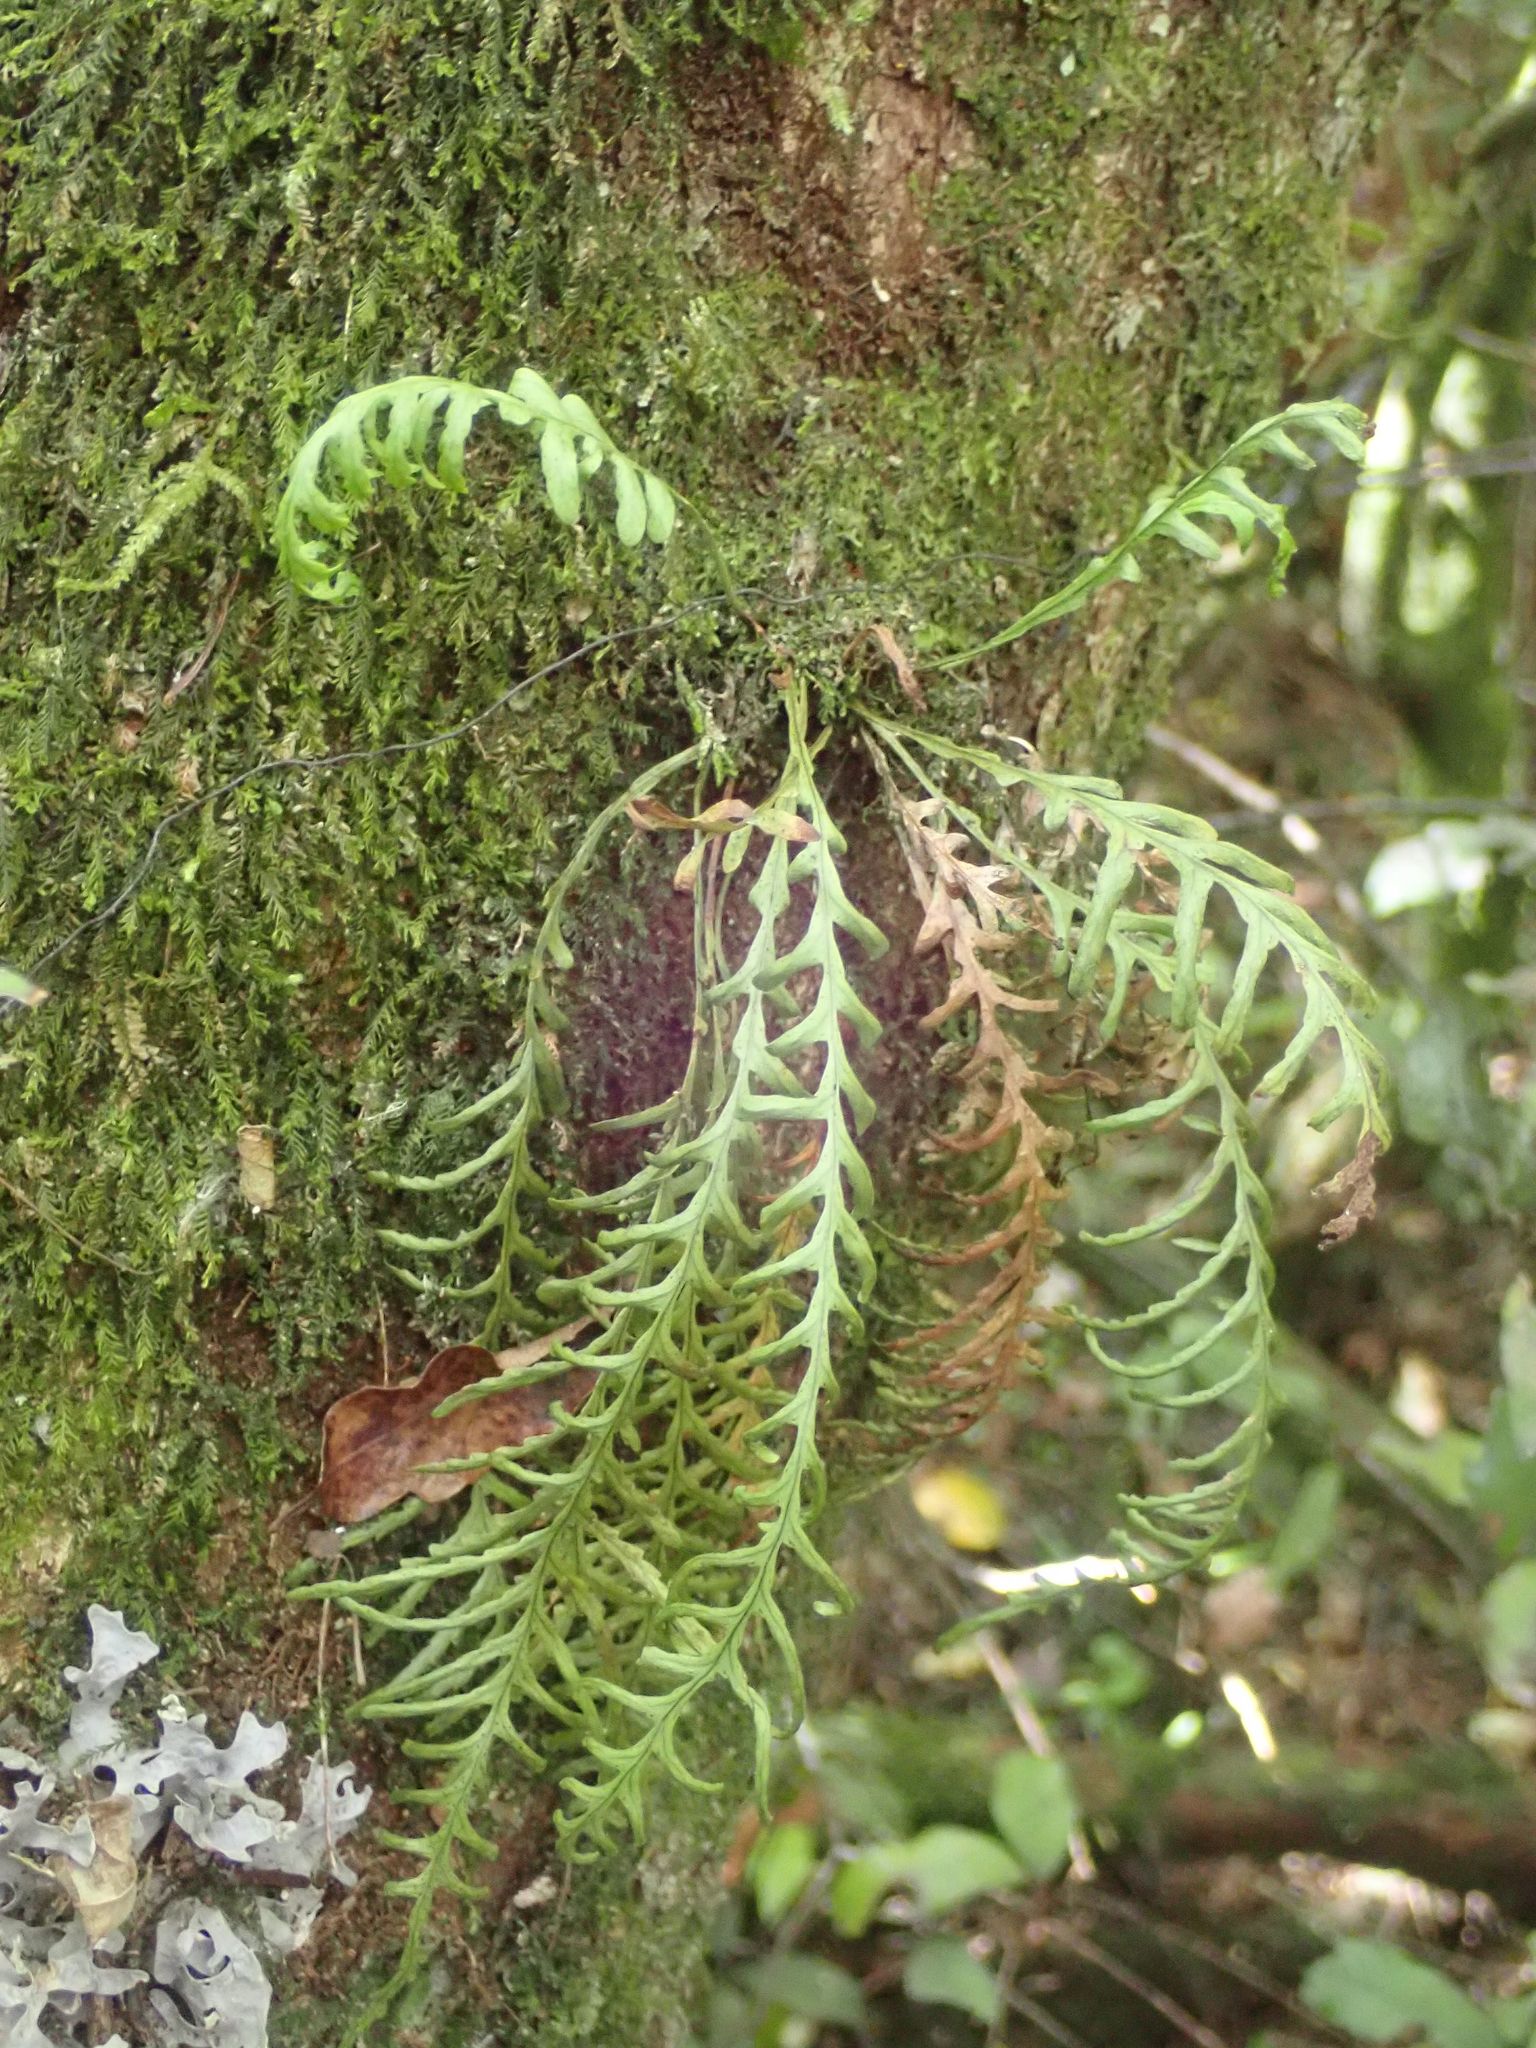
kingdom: Plantae
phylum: Tracheophyta
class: Polypodiopsida
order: Polypodiales
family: Polypodiaceae
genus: Notogrammitis
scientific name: Notogrammitis heterophylla
